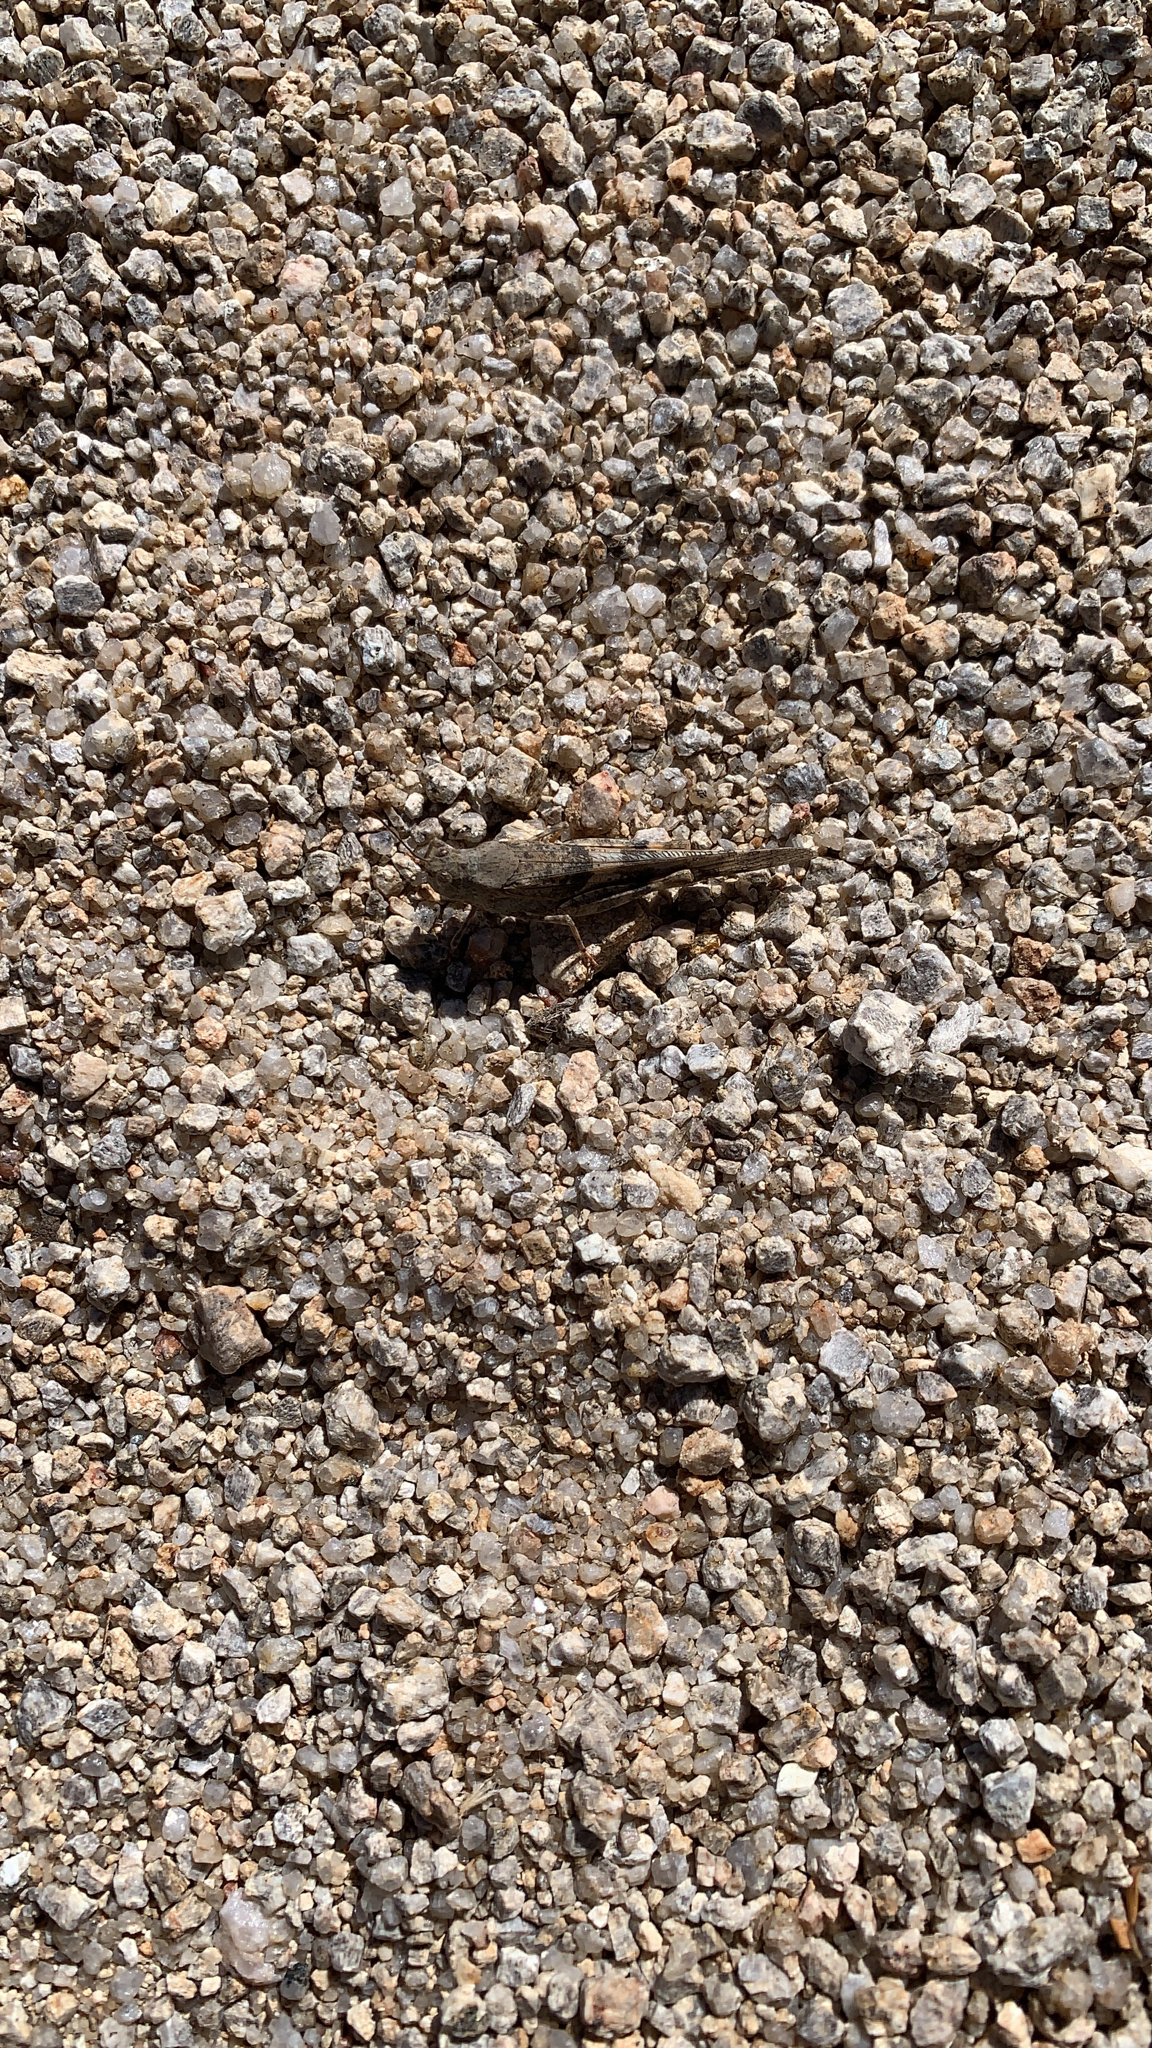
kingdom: Animalia
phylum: Arthropoda
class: Insecta
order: Orthoptera
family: Acrididae
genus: Trimerotropis
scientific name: Trimerotropis pallidipennis
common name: Pallid-winged grasshopper
